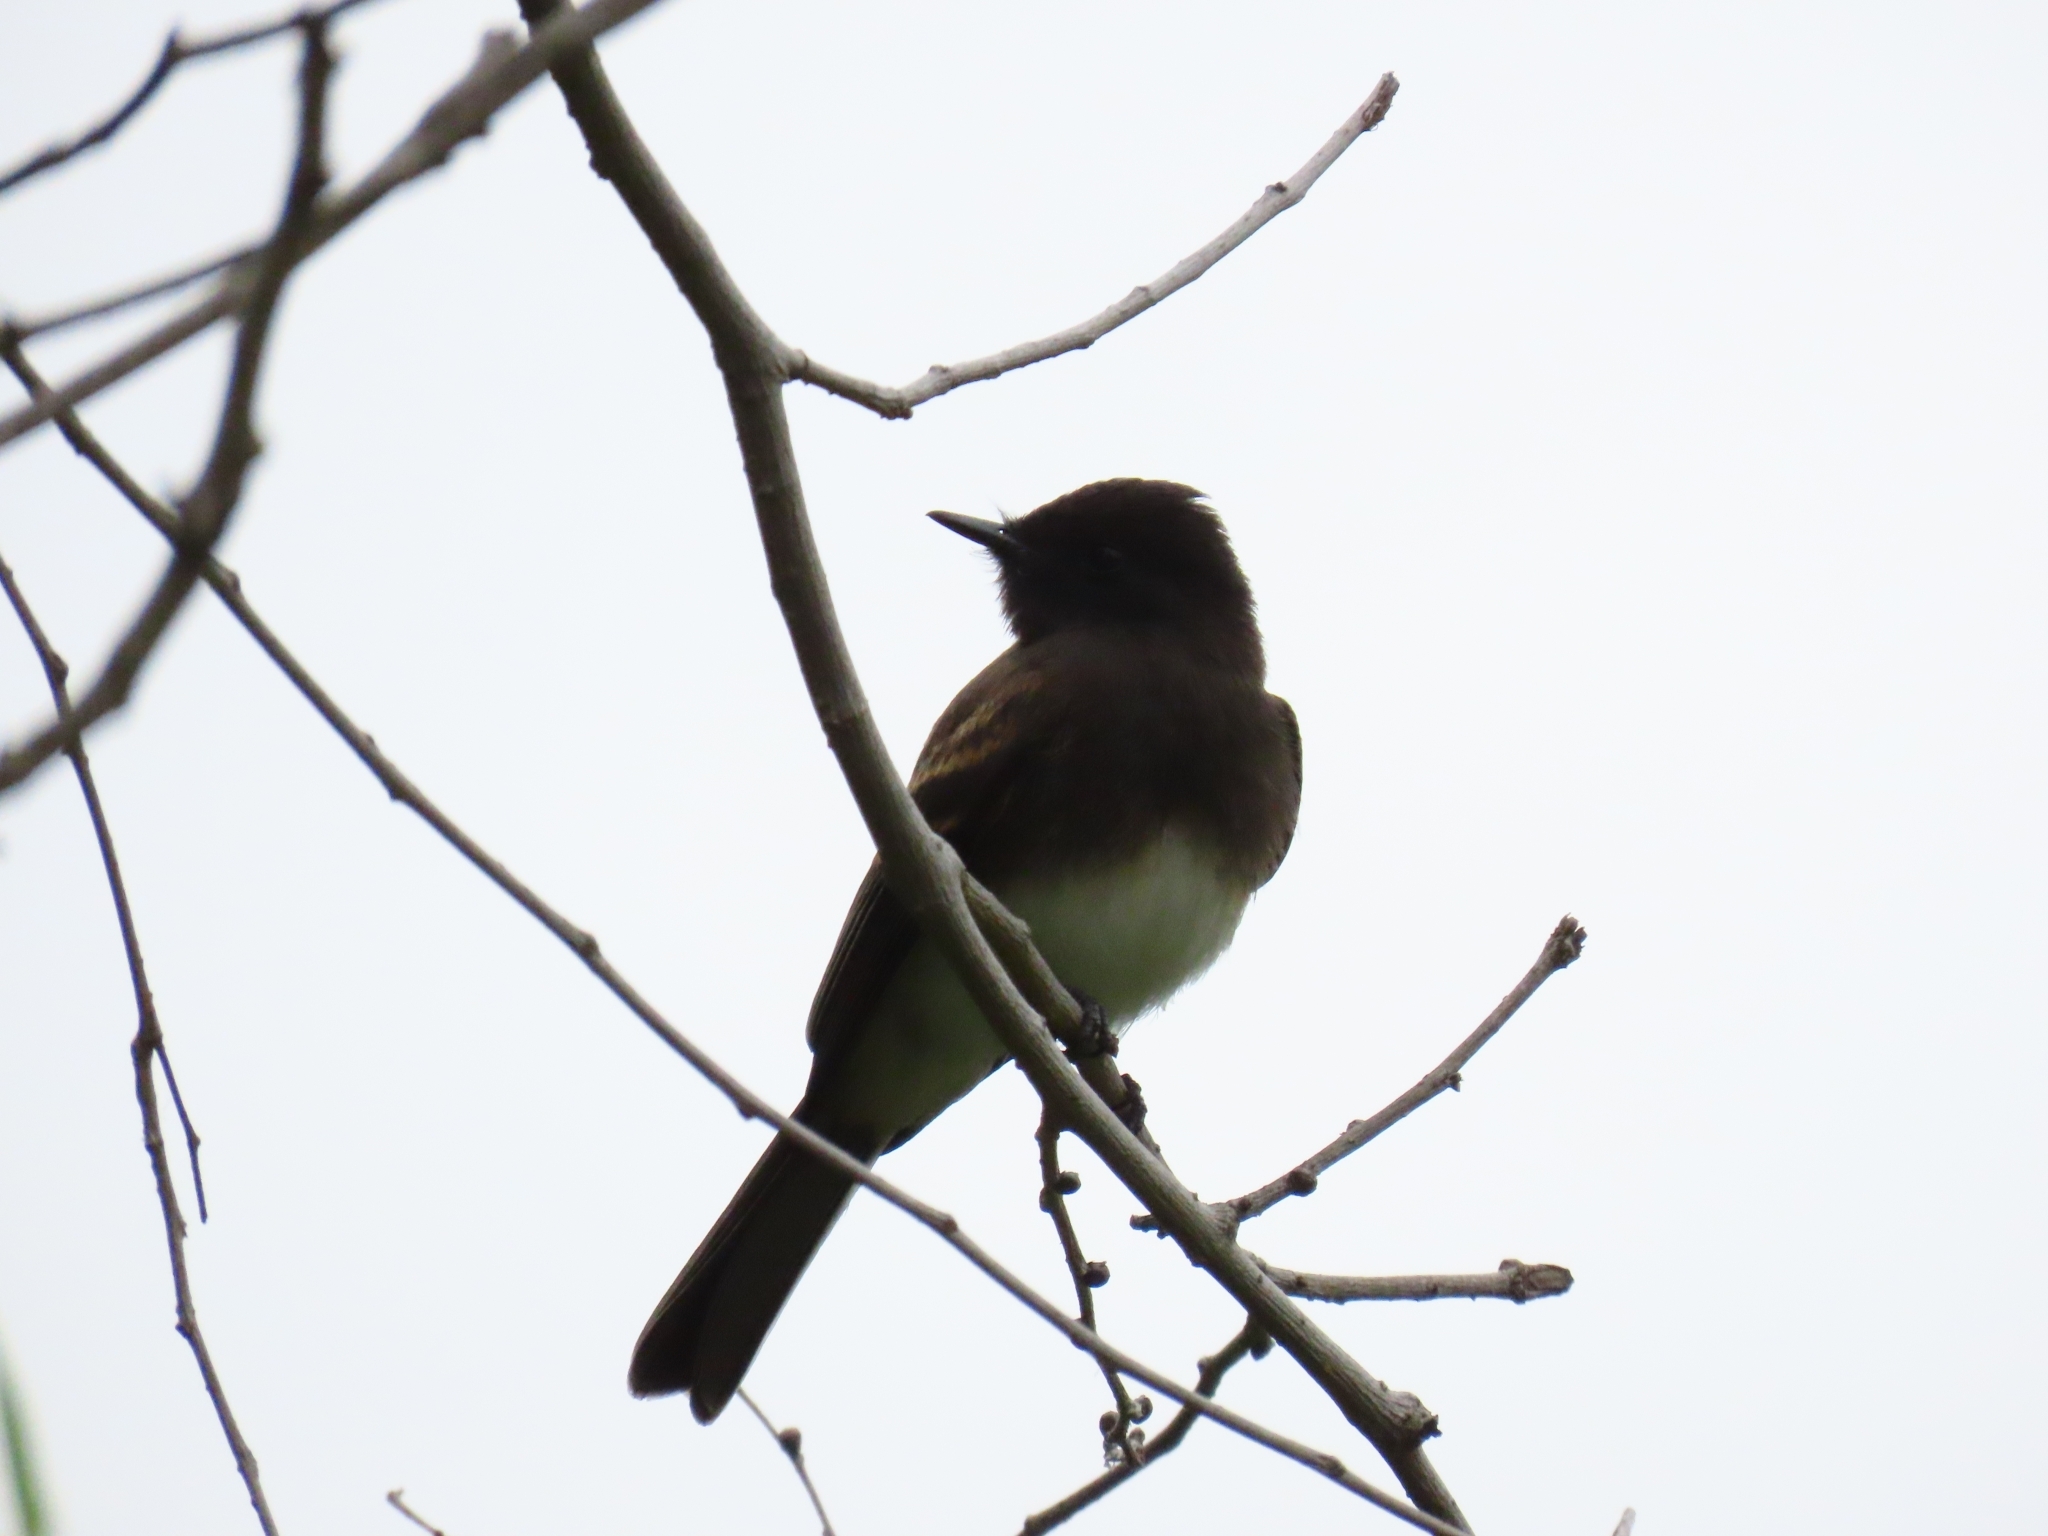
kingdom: Animalia
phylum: Chordata
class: Aves
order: Passeriformes
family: Tyrannidae
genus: Sayornis
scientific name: Sayornis nigricans
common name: Black phoebe
